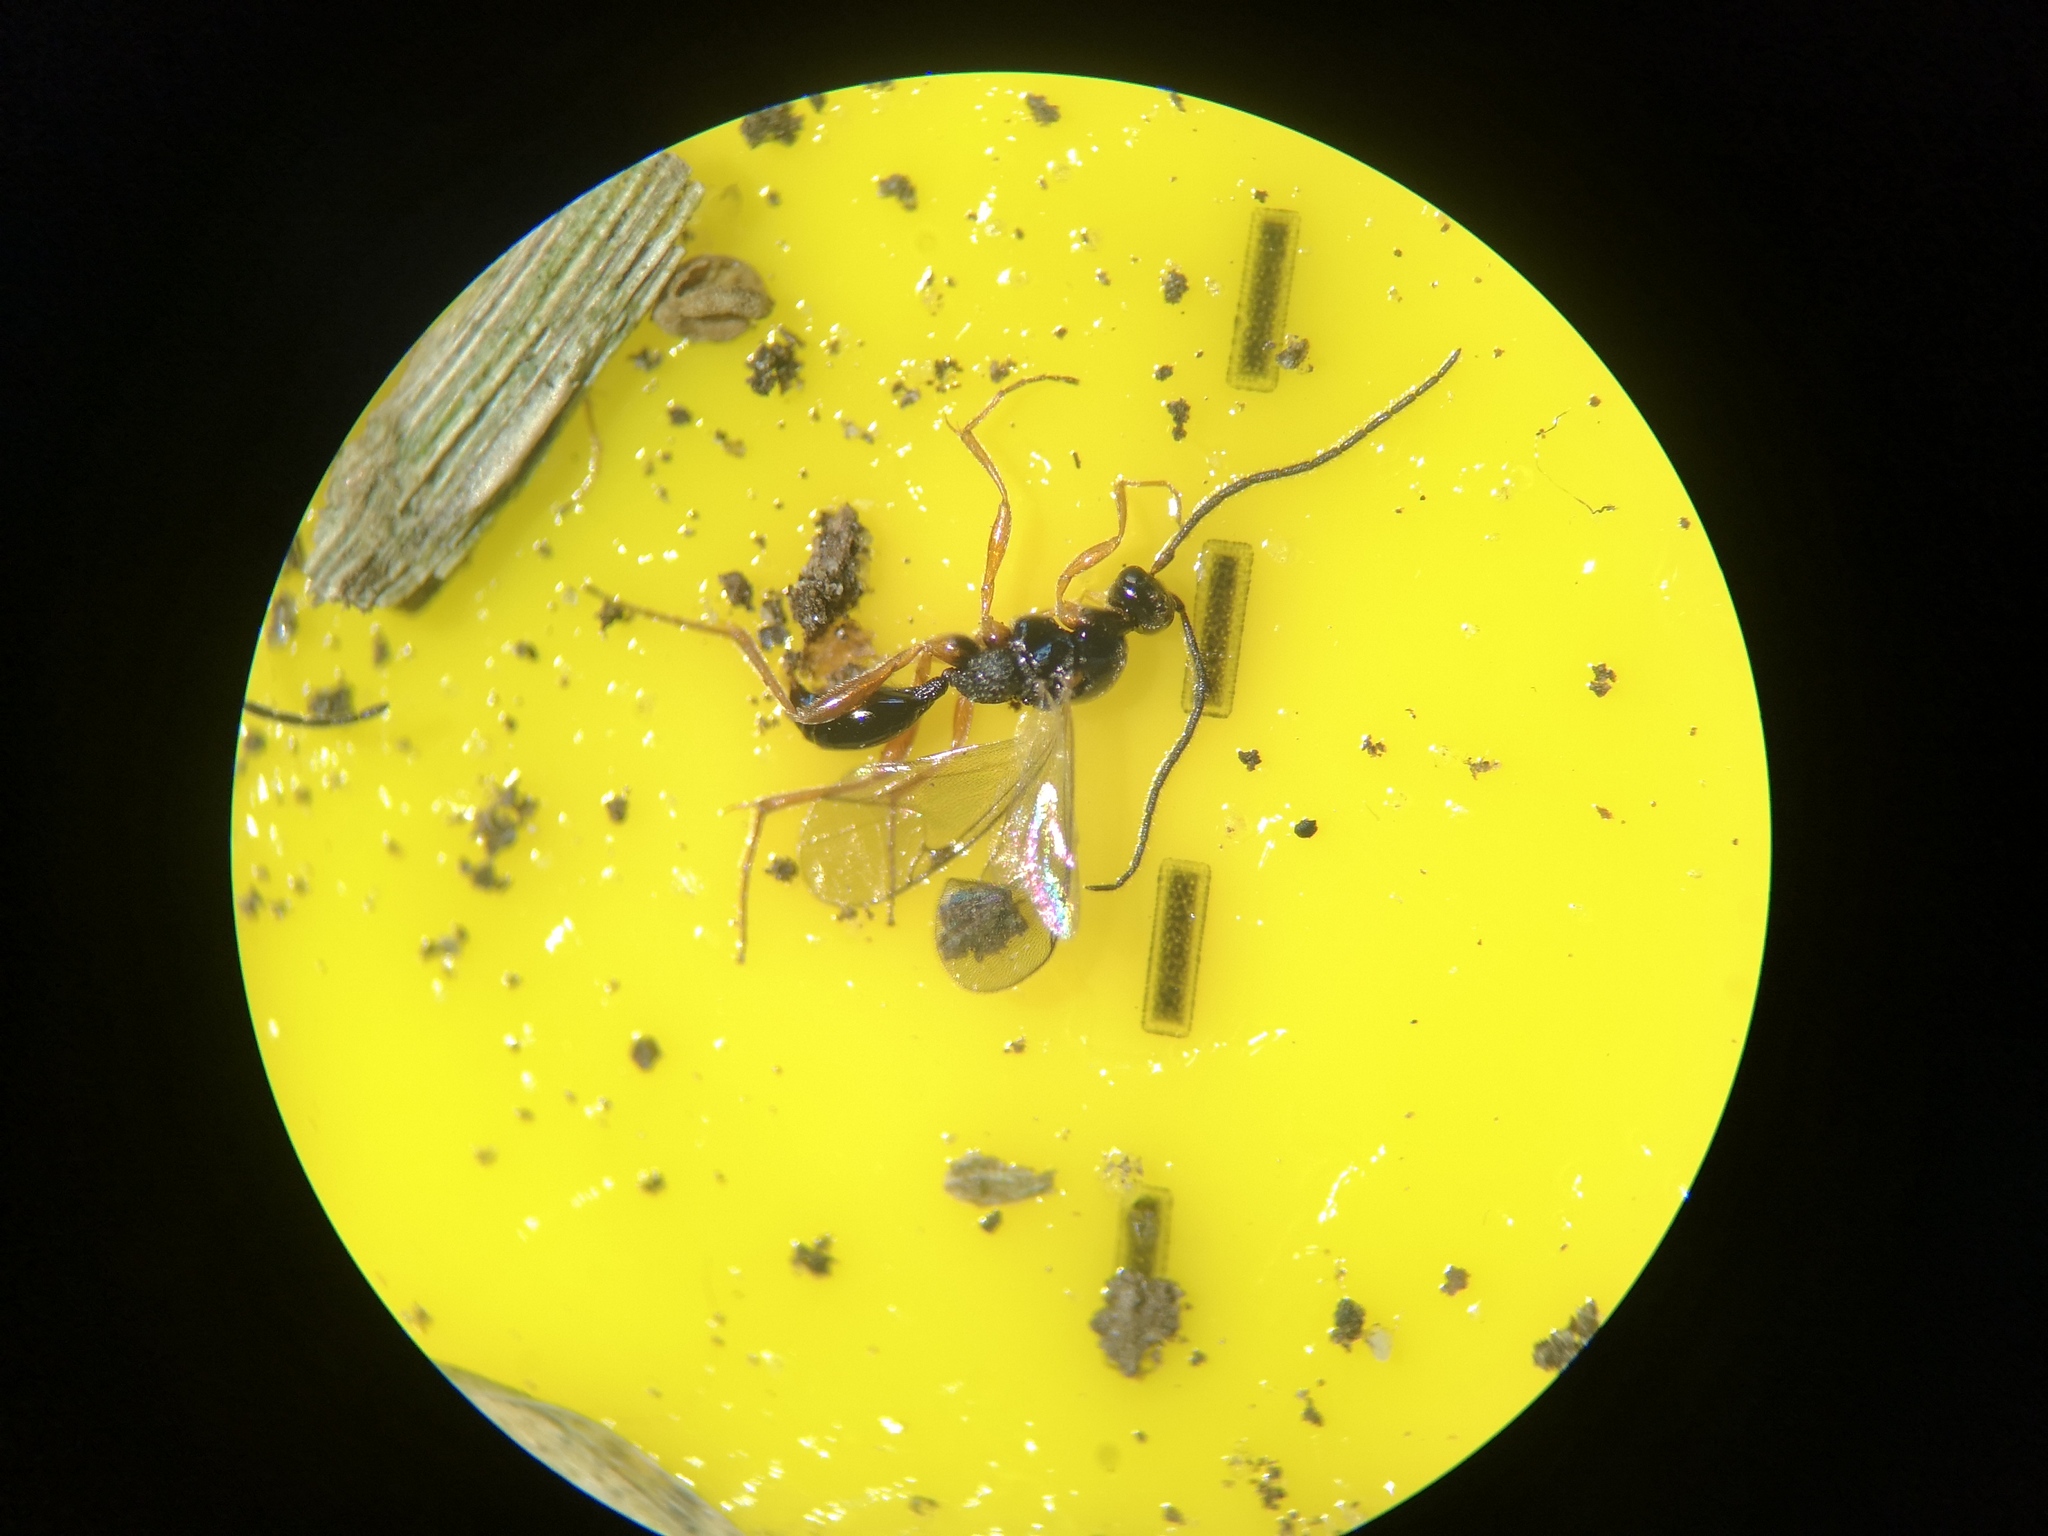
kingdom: Animalia
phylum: Arthropoda
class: Insecta
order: Hymenoptera
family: Proctotrupidae
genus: Phaneroserphus
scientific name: Phaneroserphus calcar
